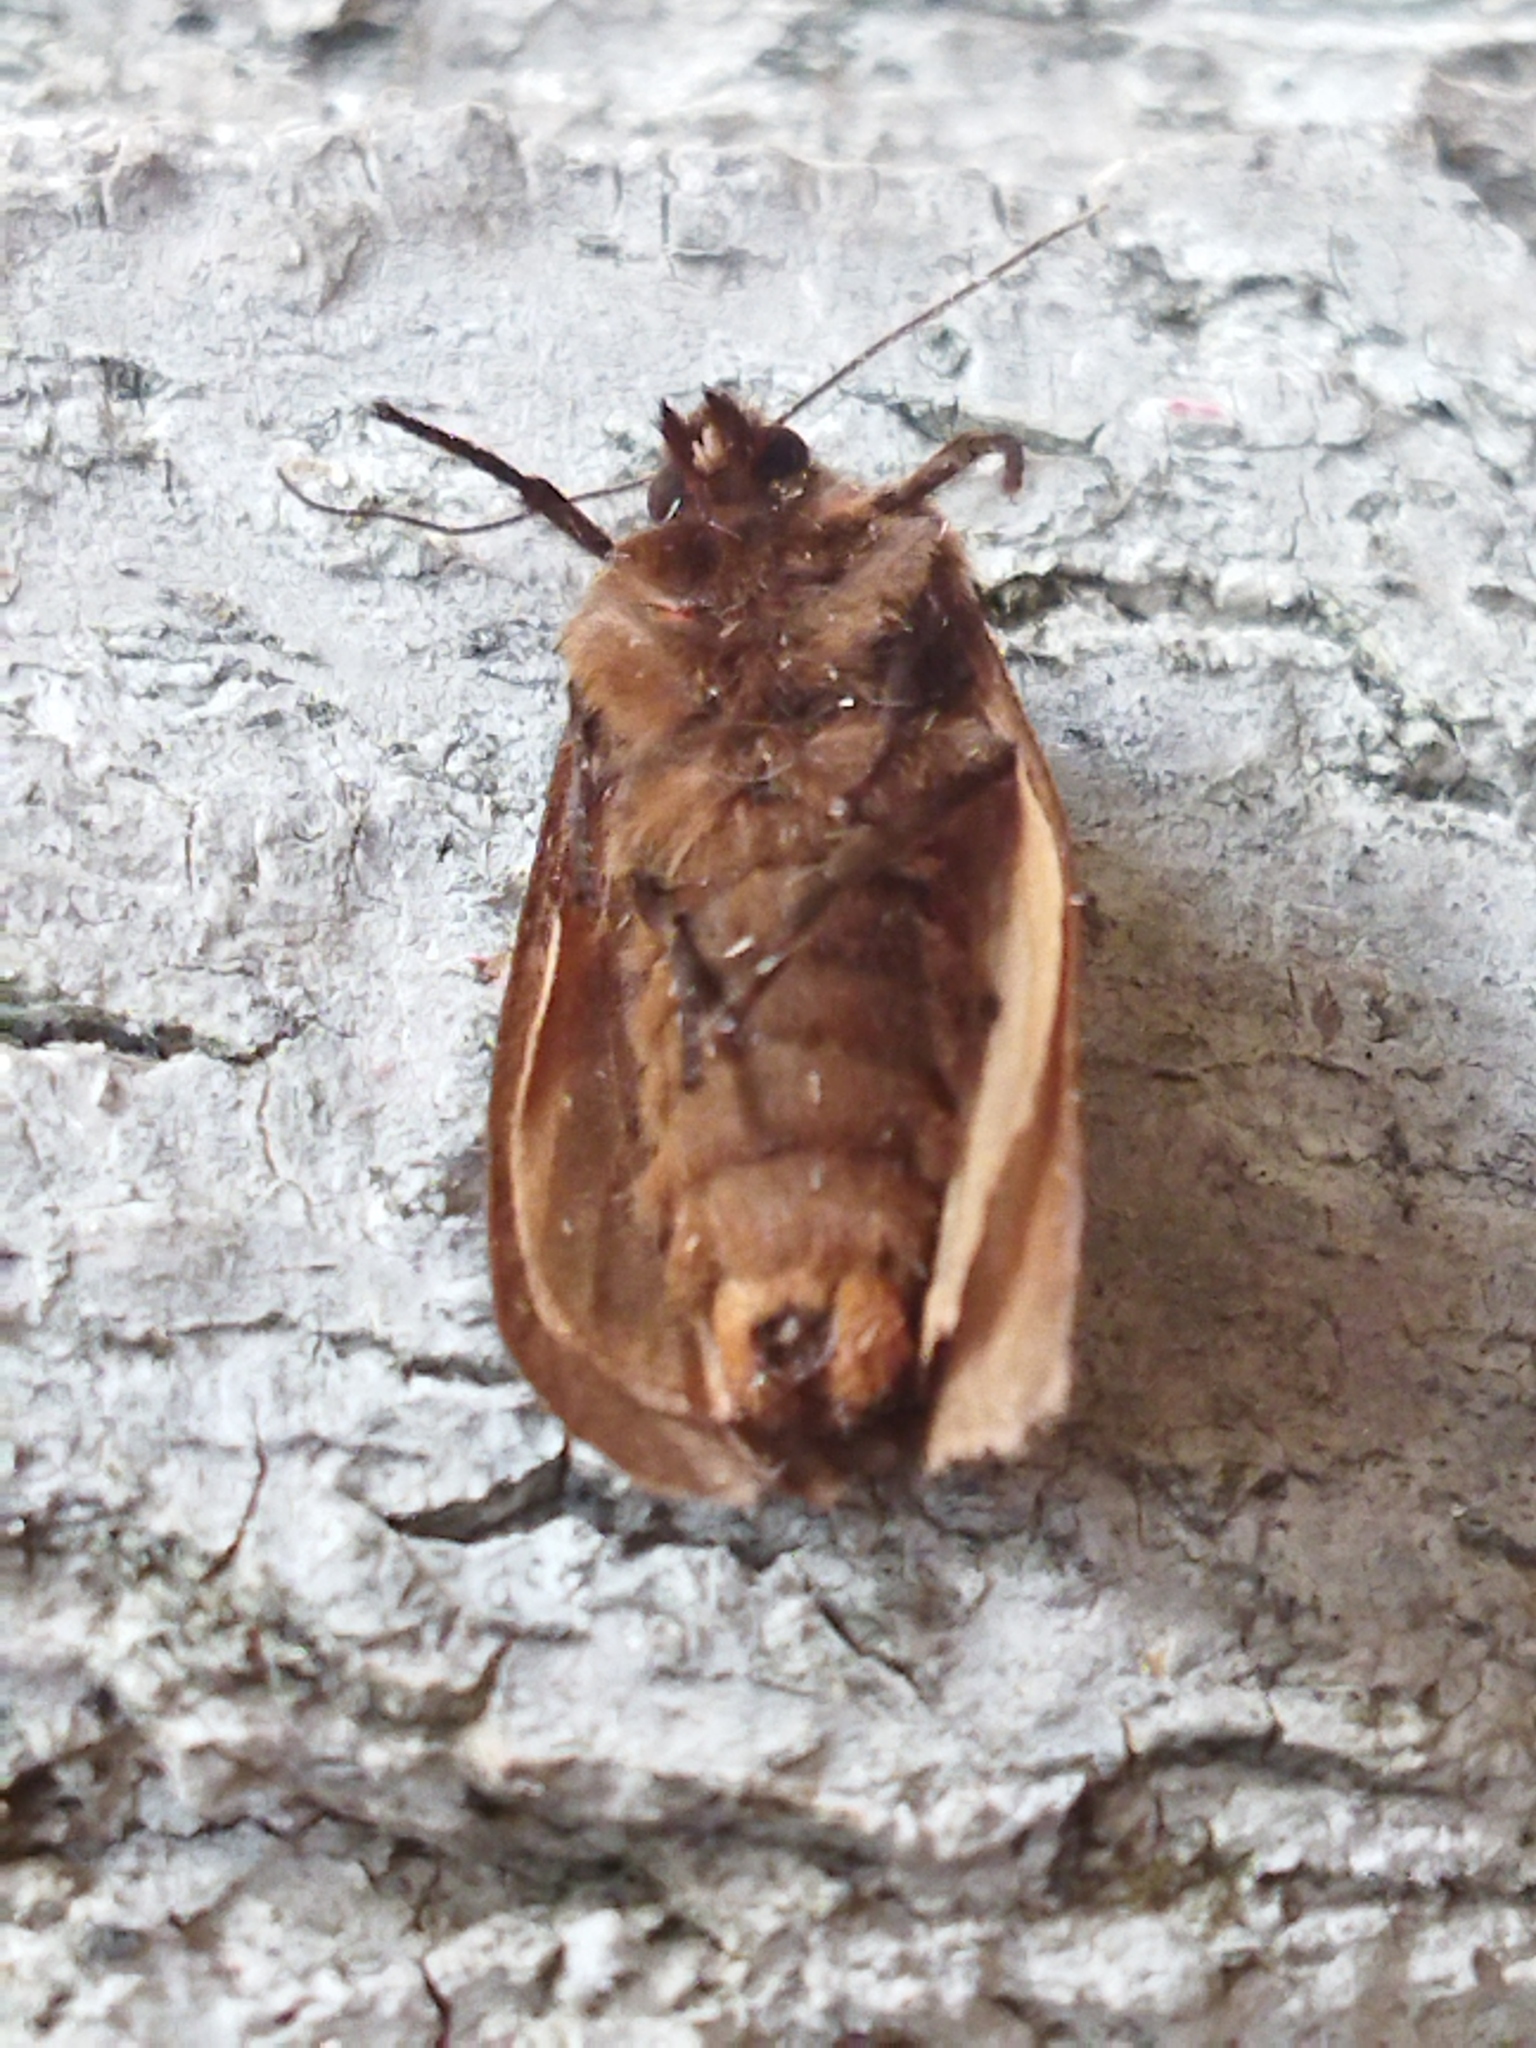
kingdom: Animalia
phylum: Arthropoda
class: Insecta
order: Lepidoptera
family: Erebidae
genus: Phragmatobia
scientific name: Phragmatobia fuliginosa
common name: Ruby tiger
